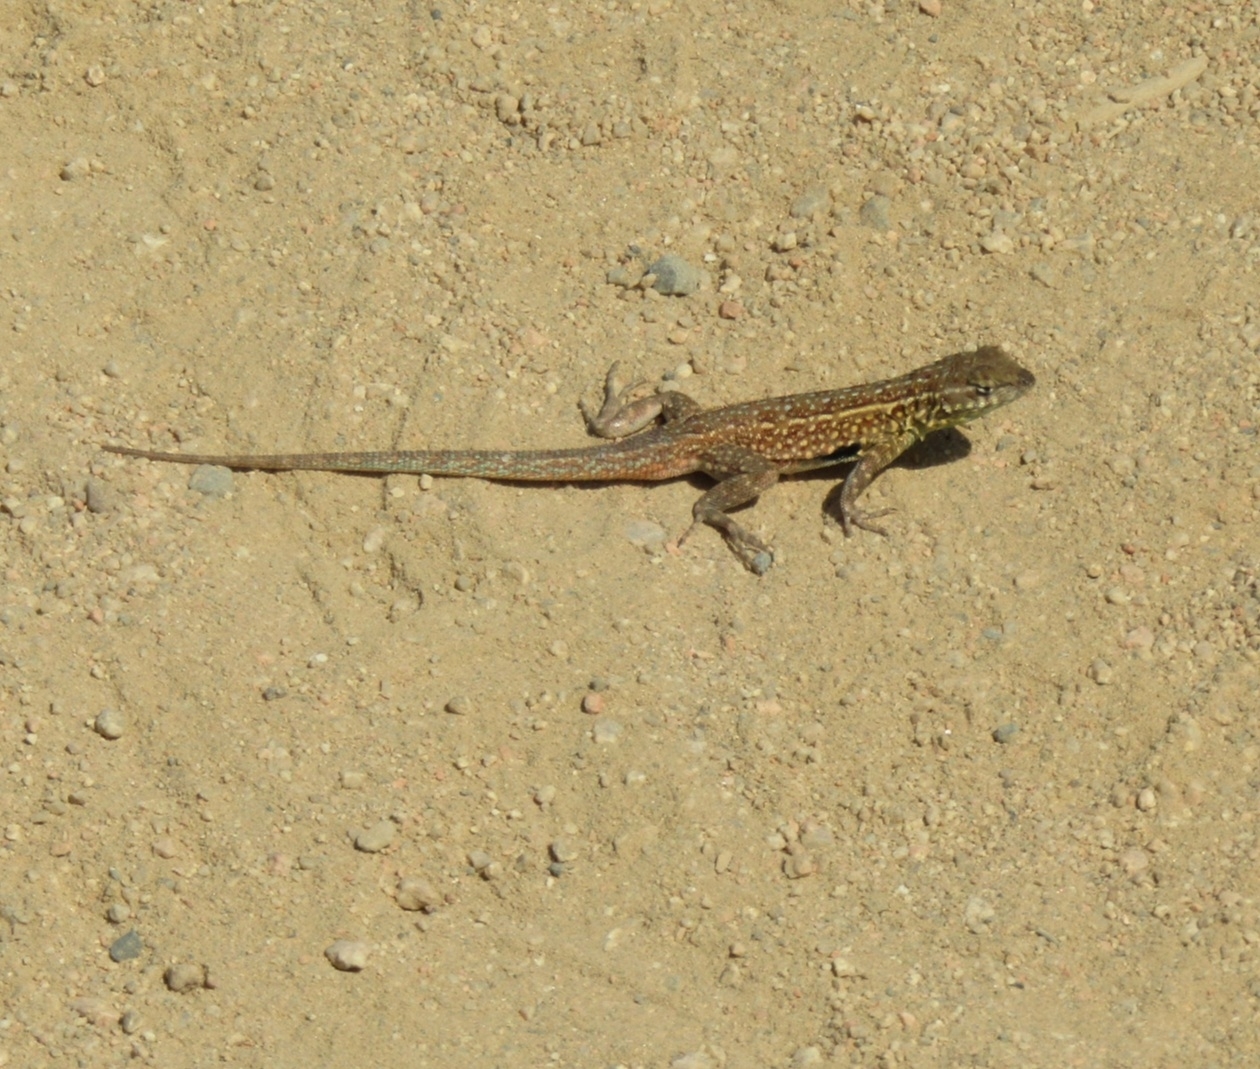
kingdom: Animalia
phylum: Chordata
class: Squamata
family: Phrynosomatidae
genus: Uta
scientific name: Uta stansburiana
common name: Side-blotched lizard
